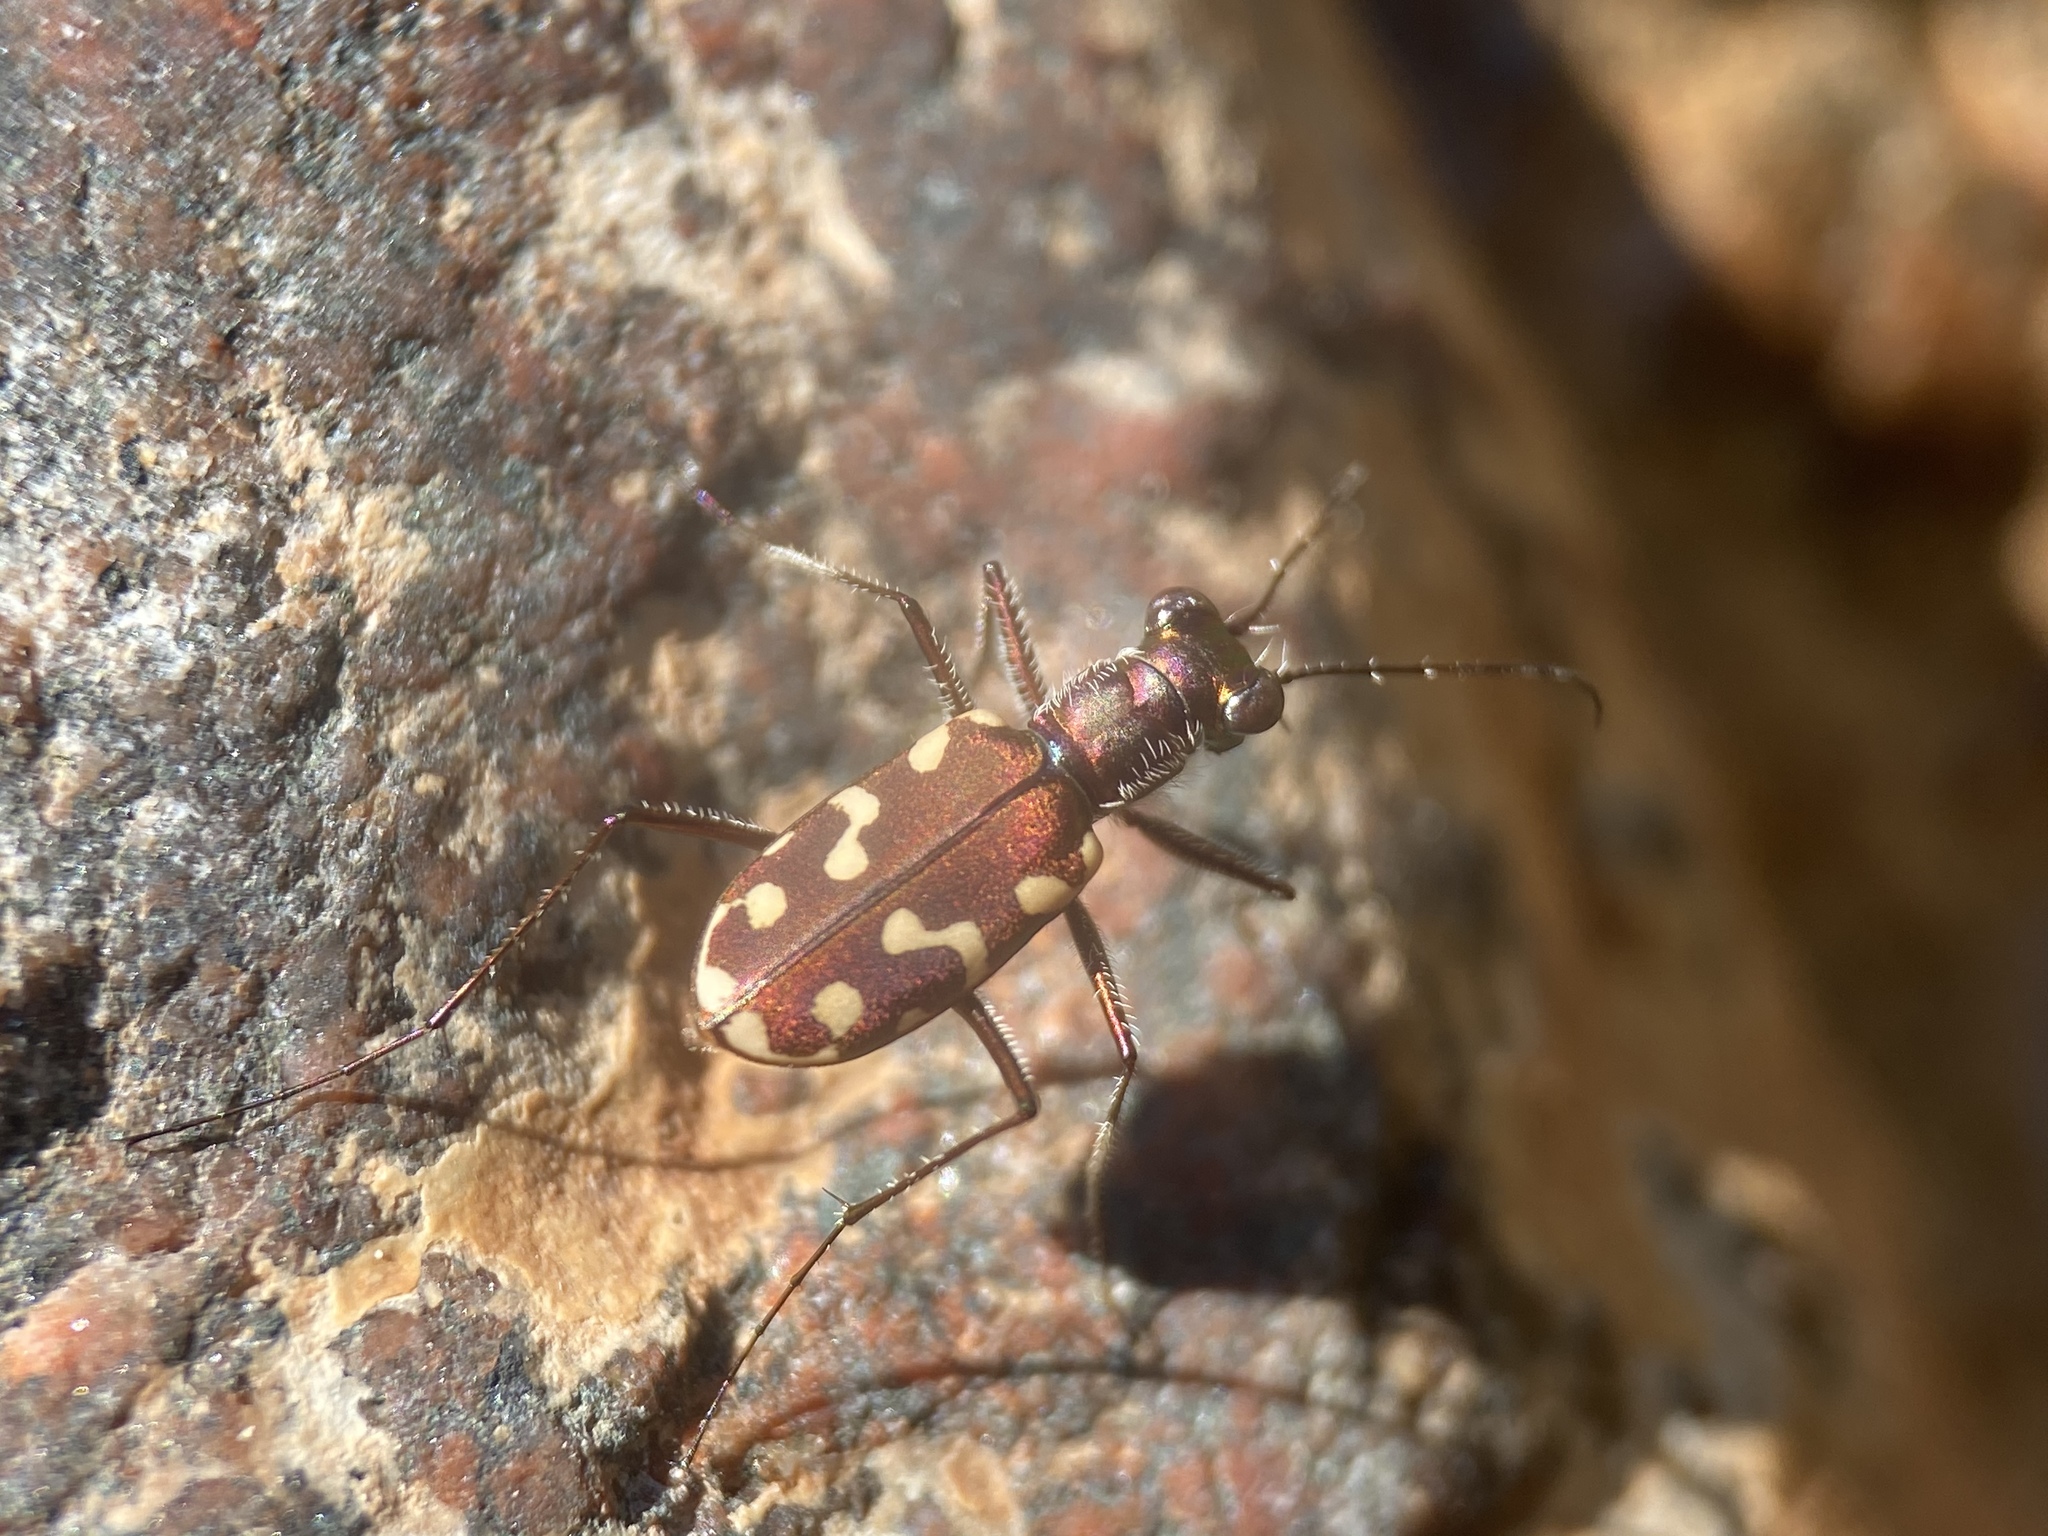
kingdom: Animalia
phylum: Arthropoda
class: Insecta
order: Coleoptera
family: Carabidae
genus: Cicindela
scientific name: Cicindela hemorrhagica
